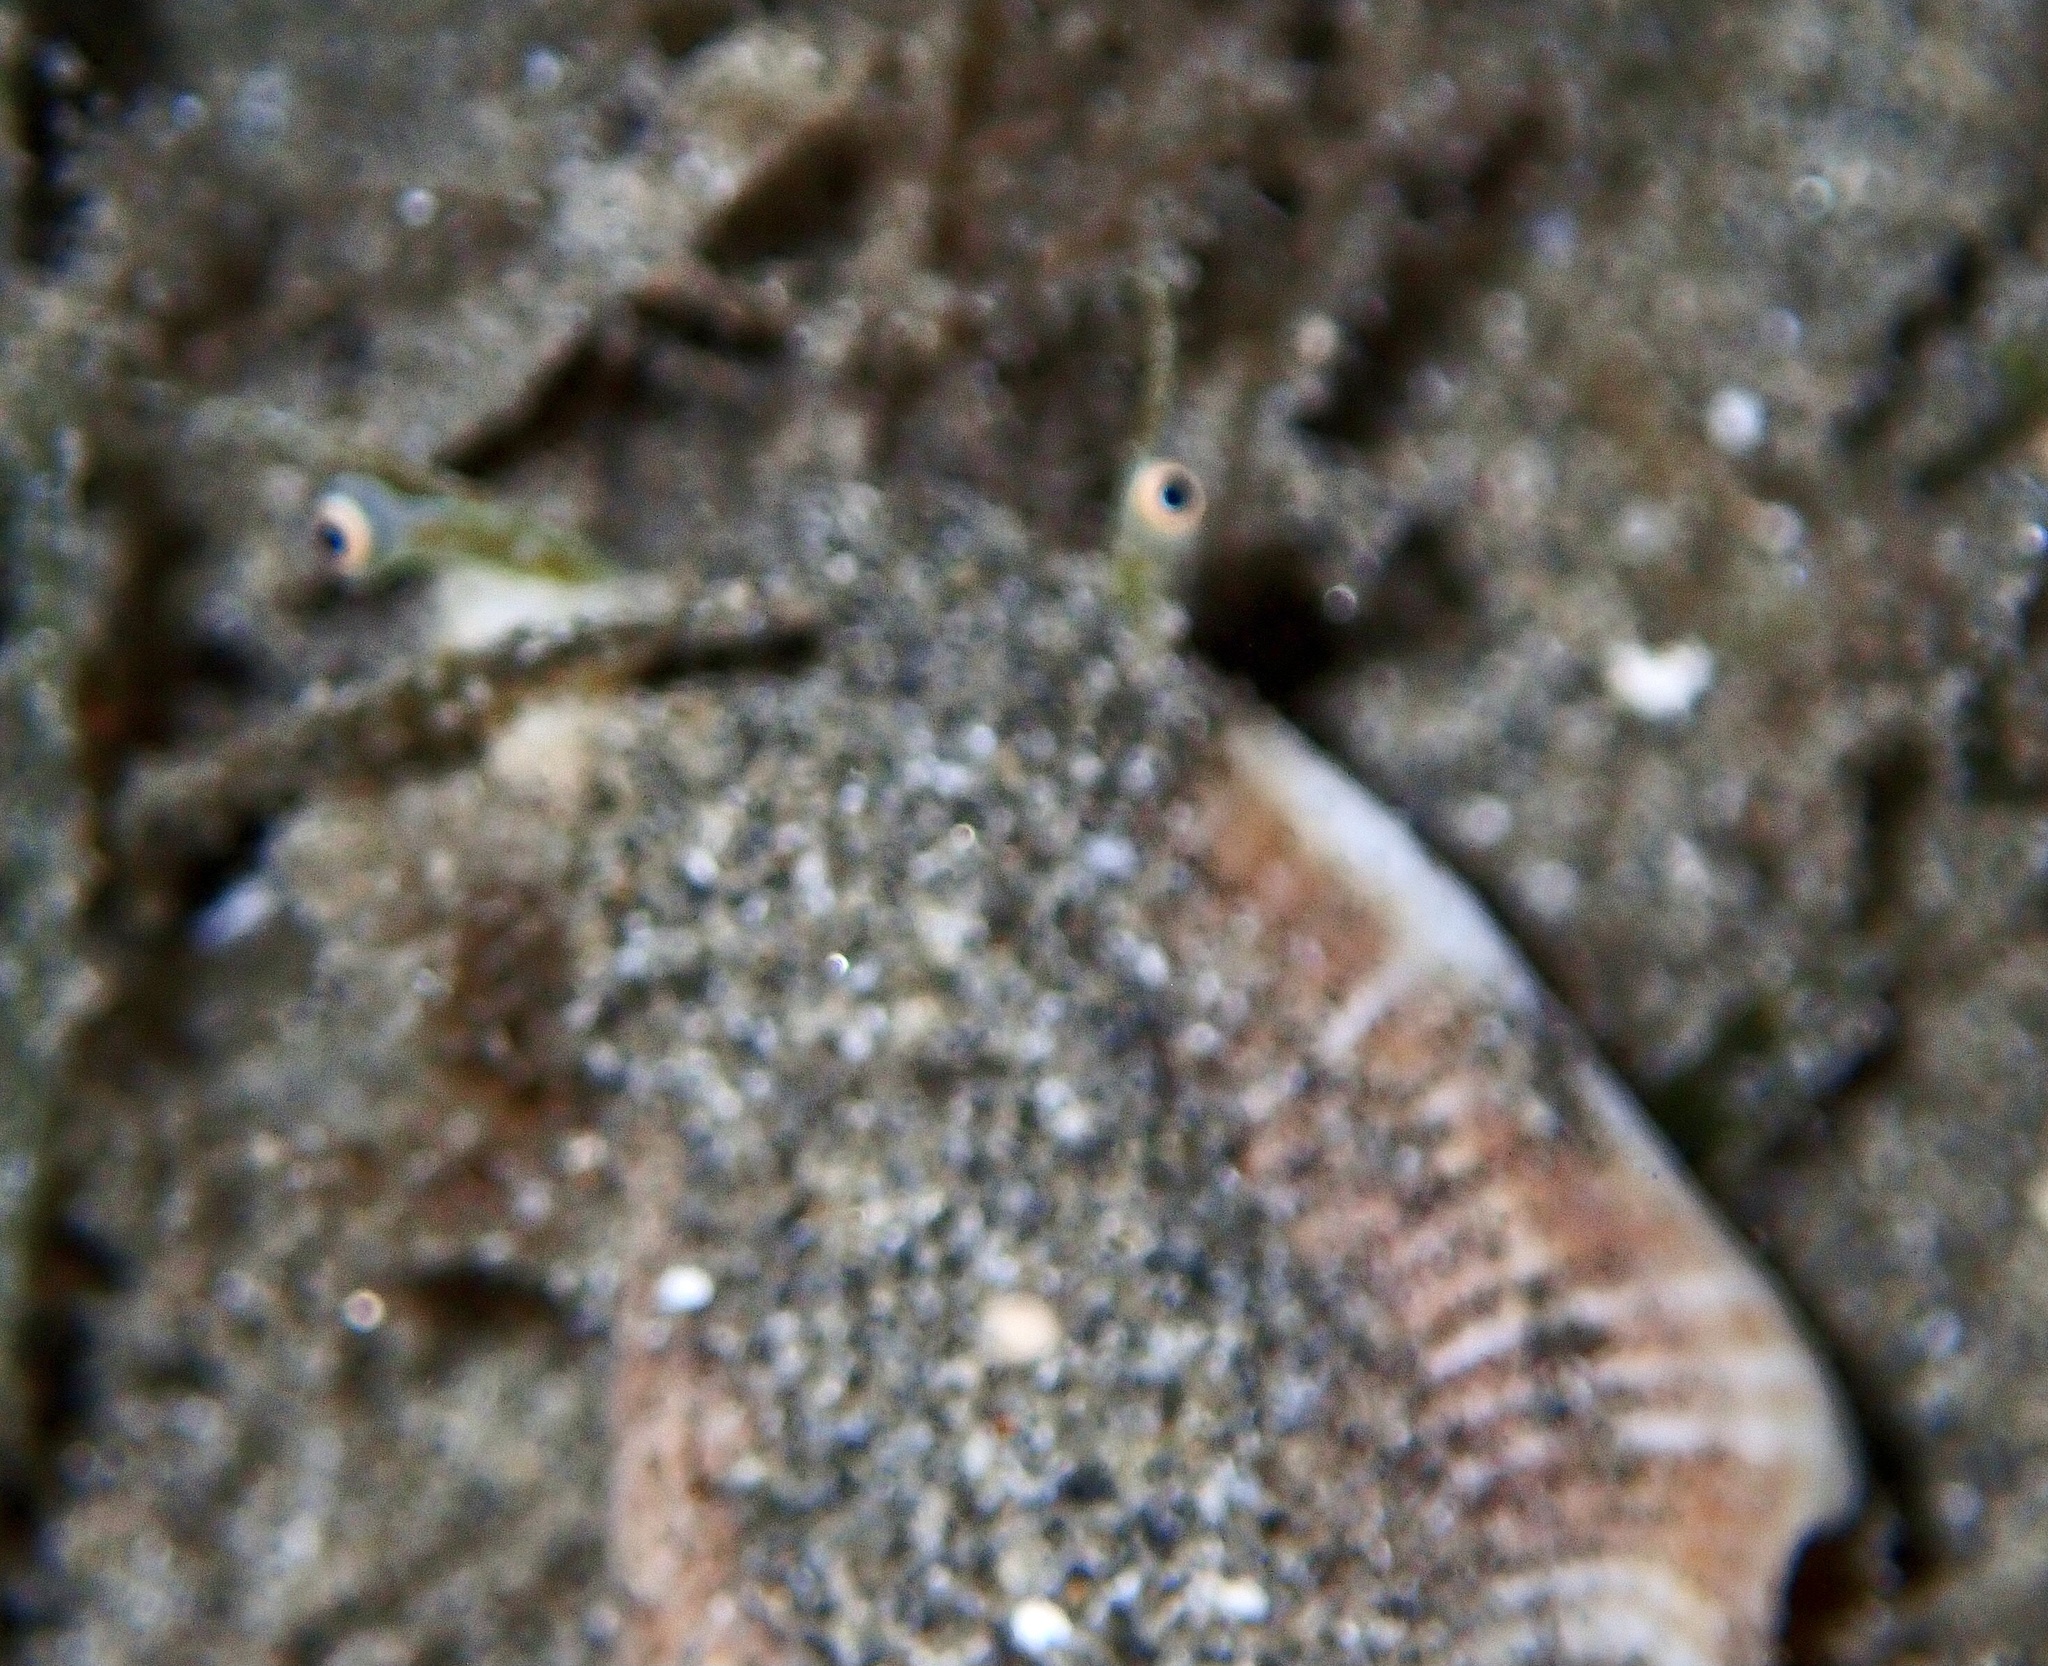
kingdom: Animalia
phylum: Mollusca
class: Gastropoda
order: Littorinimorpha
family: Strombidae
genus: Gibberulus
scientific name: Gibberulus gibberulus
